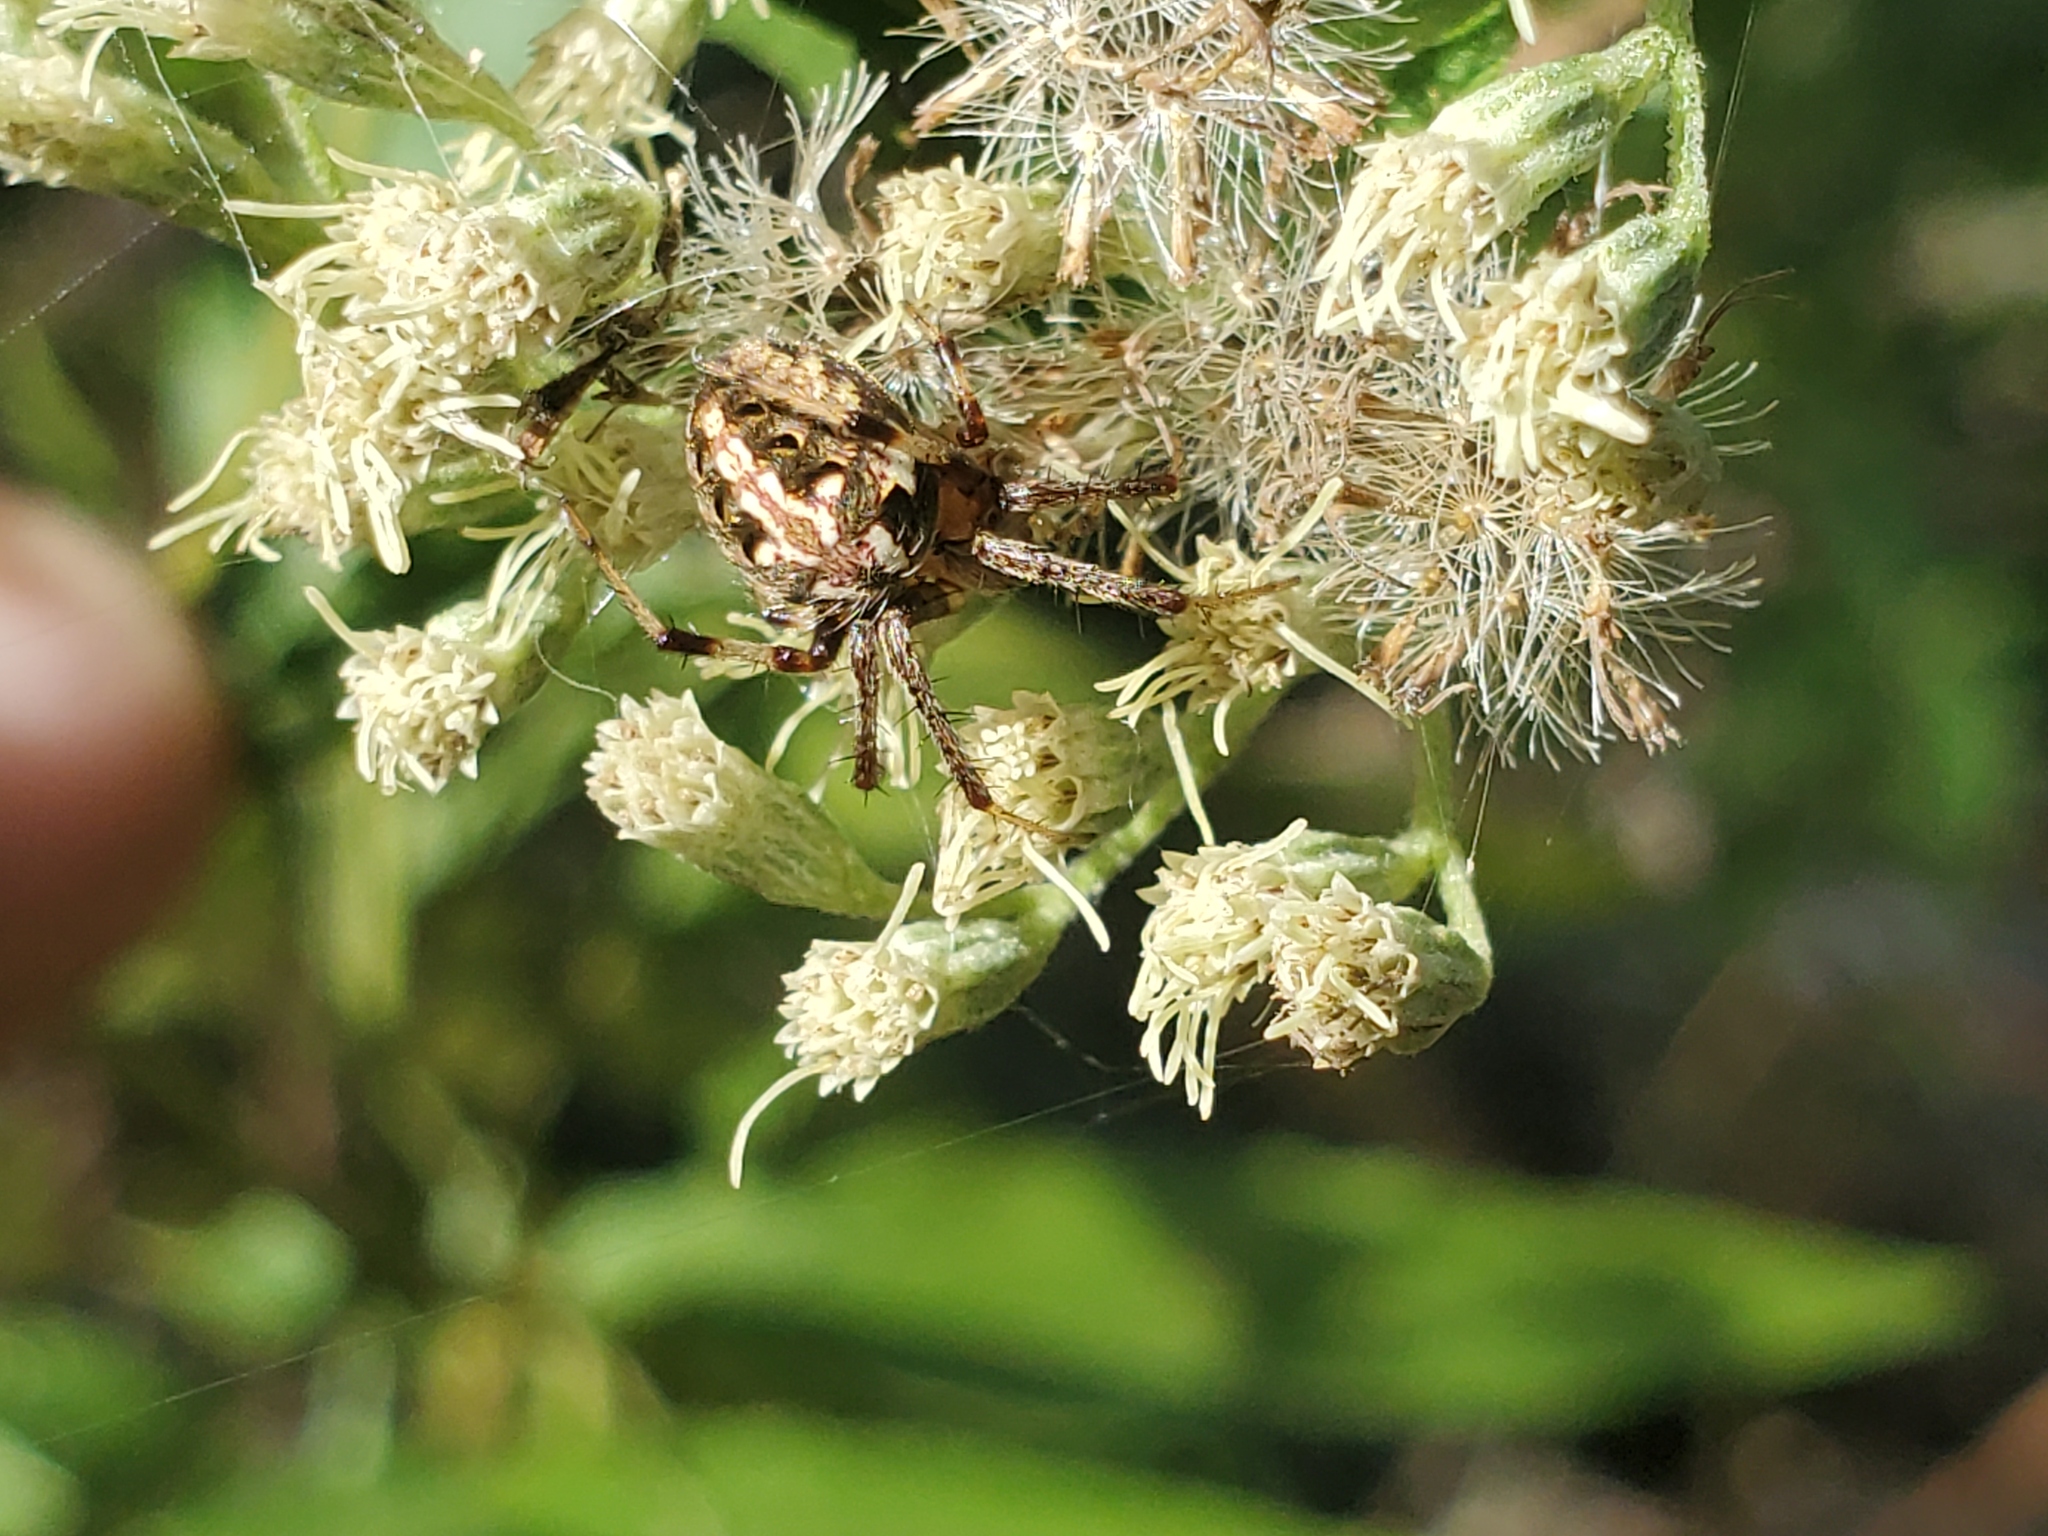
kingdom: Animalia
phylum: Arthropoda
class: Arachnida
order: Araneae
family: Araneidae
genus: Neoscona
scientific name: Neoscona arabesca
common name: Orb weavers
